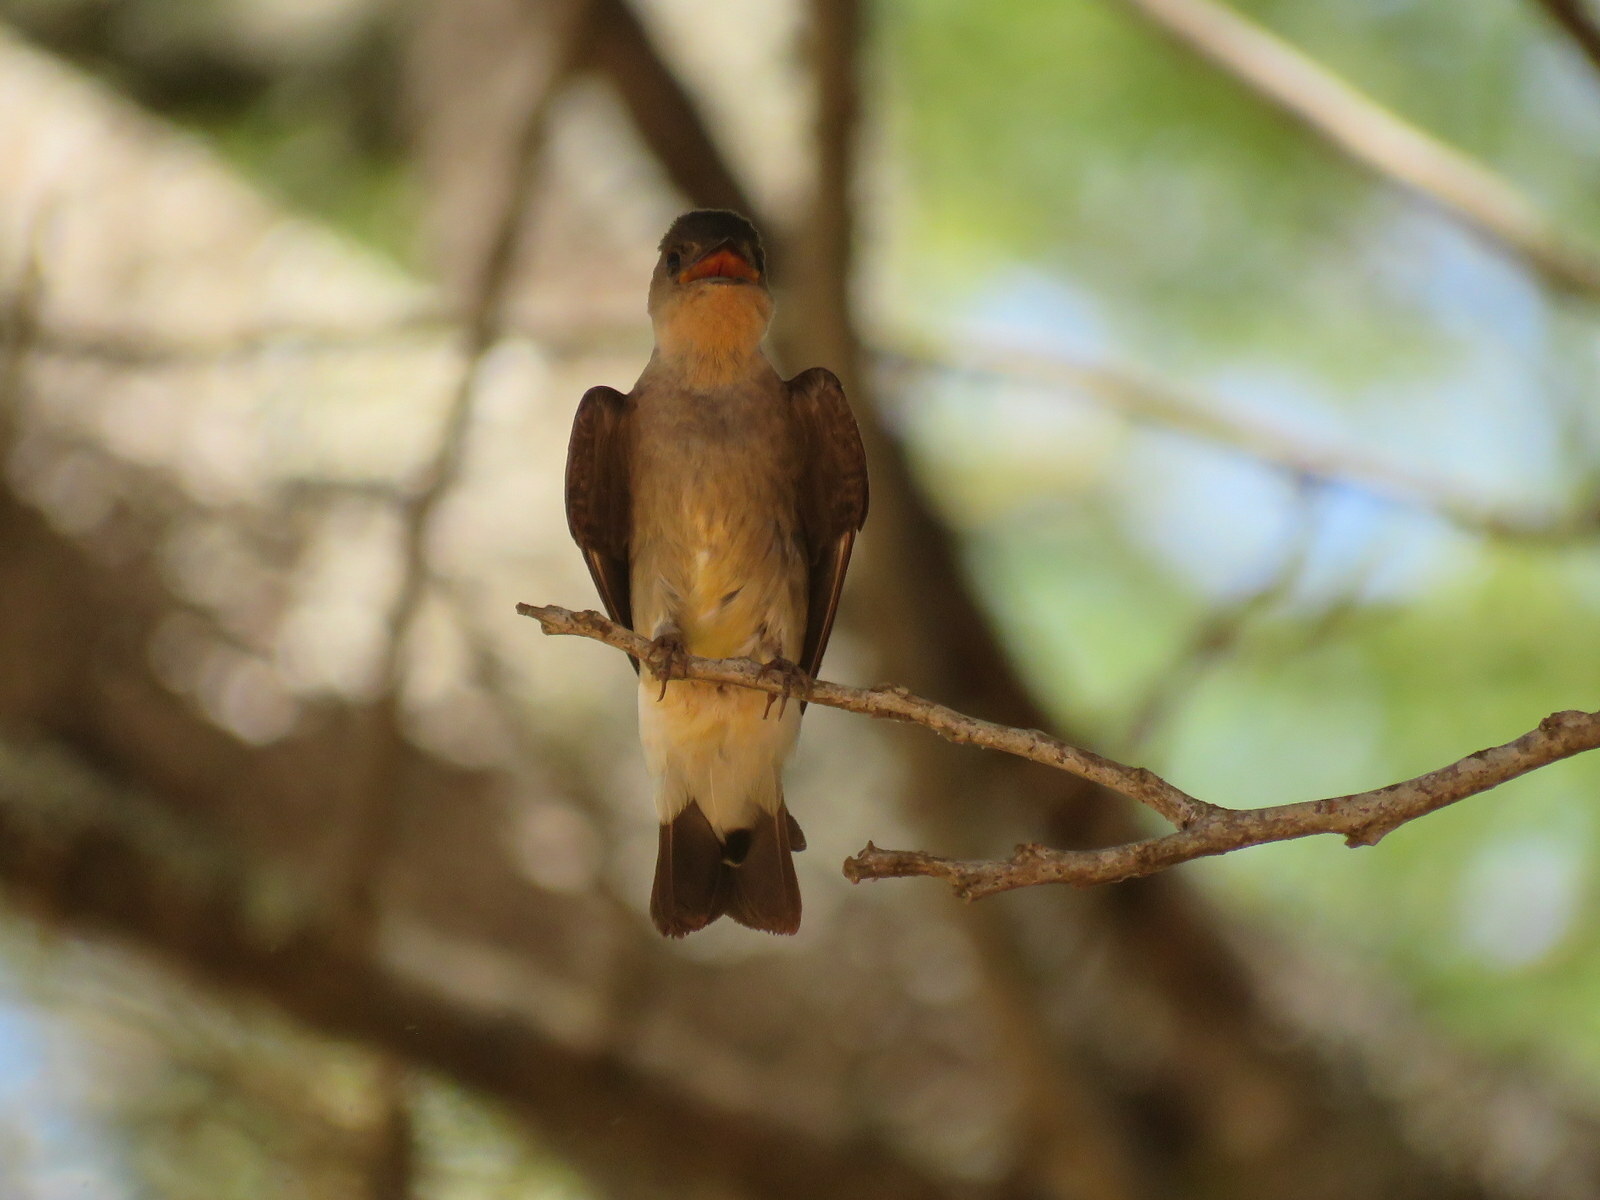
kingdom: Animalia
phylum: Chordata
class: Aves
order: Passeriformes
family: Hirundinidae
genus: Stelgidopteryx
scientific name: Stelgidopteryx ruficollis
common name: Southern rough-winged swallow
